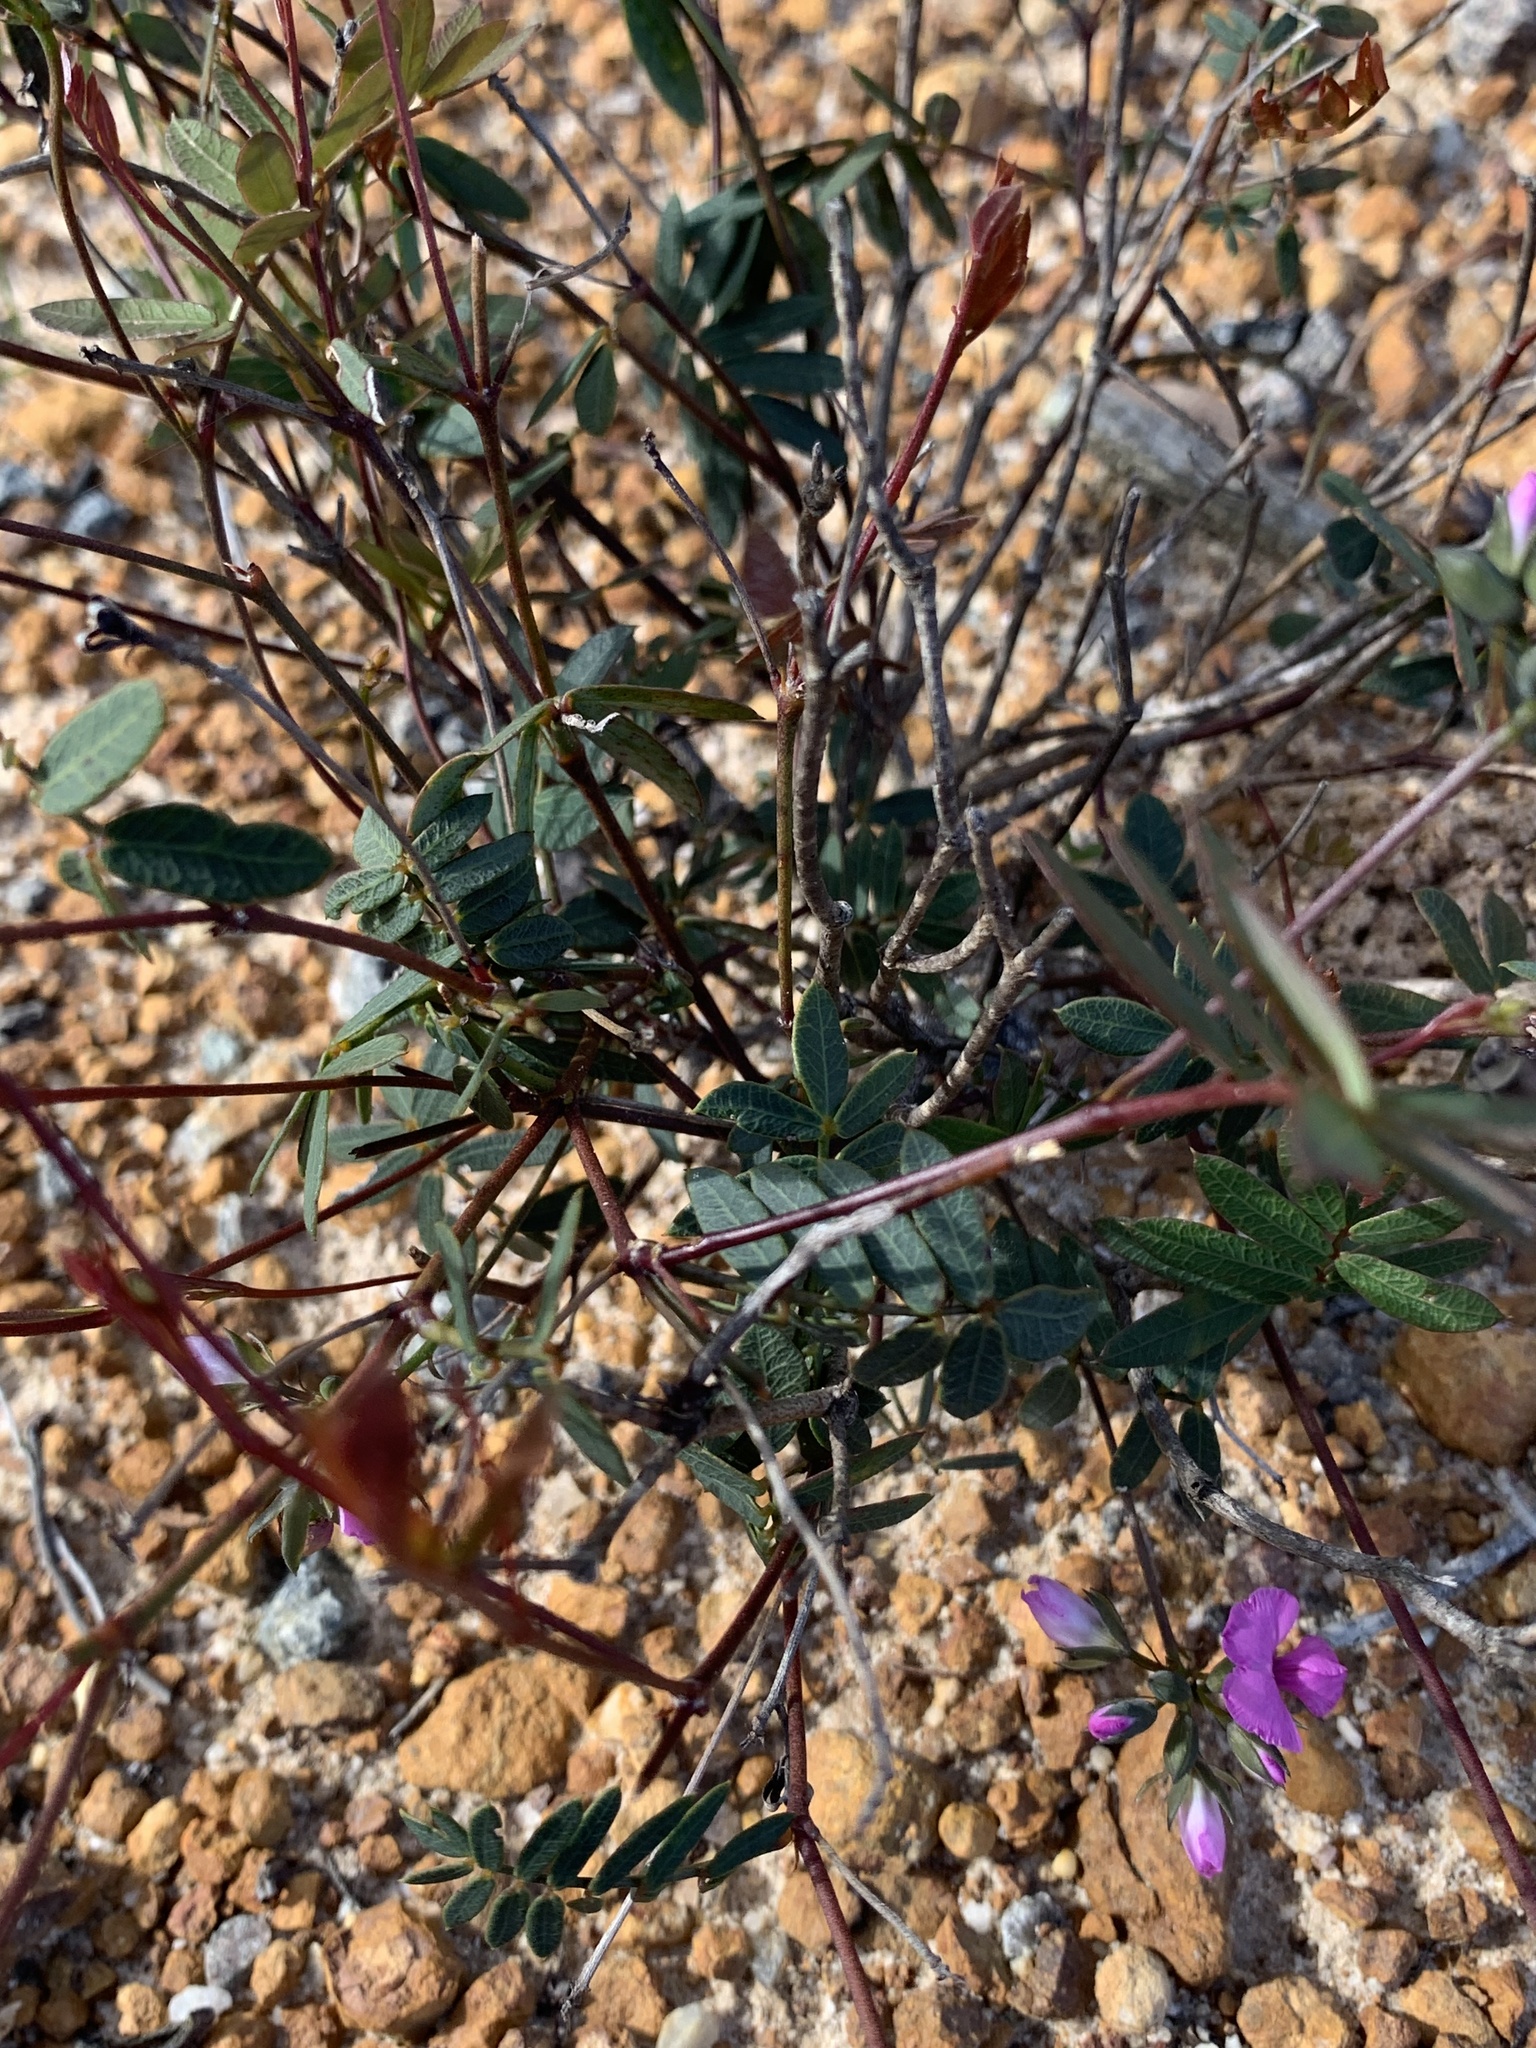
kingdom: Plantae
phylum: Tracheophyta
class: Magnoliopsida
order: Fabales
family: Fabaceae
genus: Gompholobium
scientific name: Gompholobium knightianum
